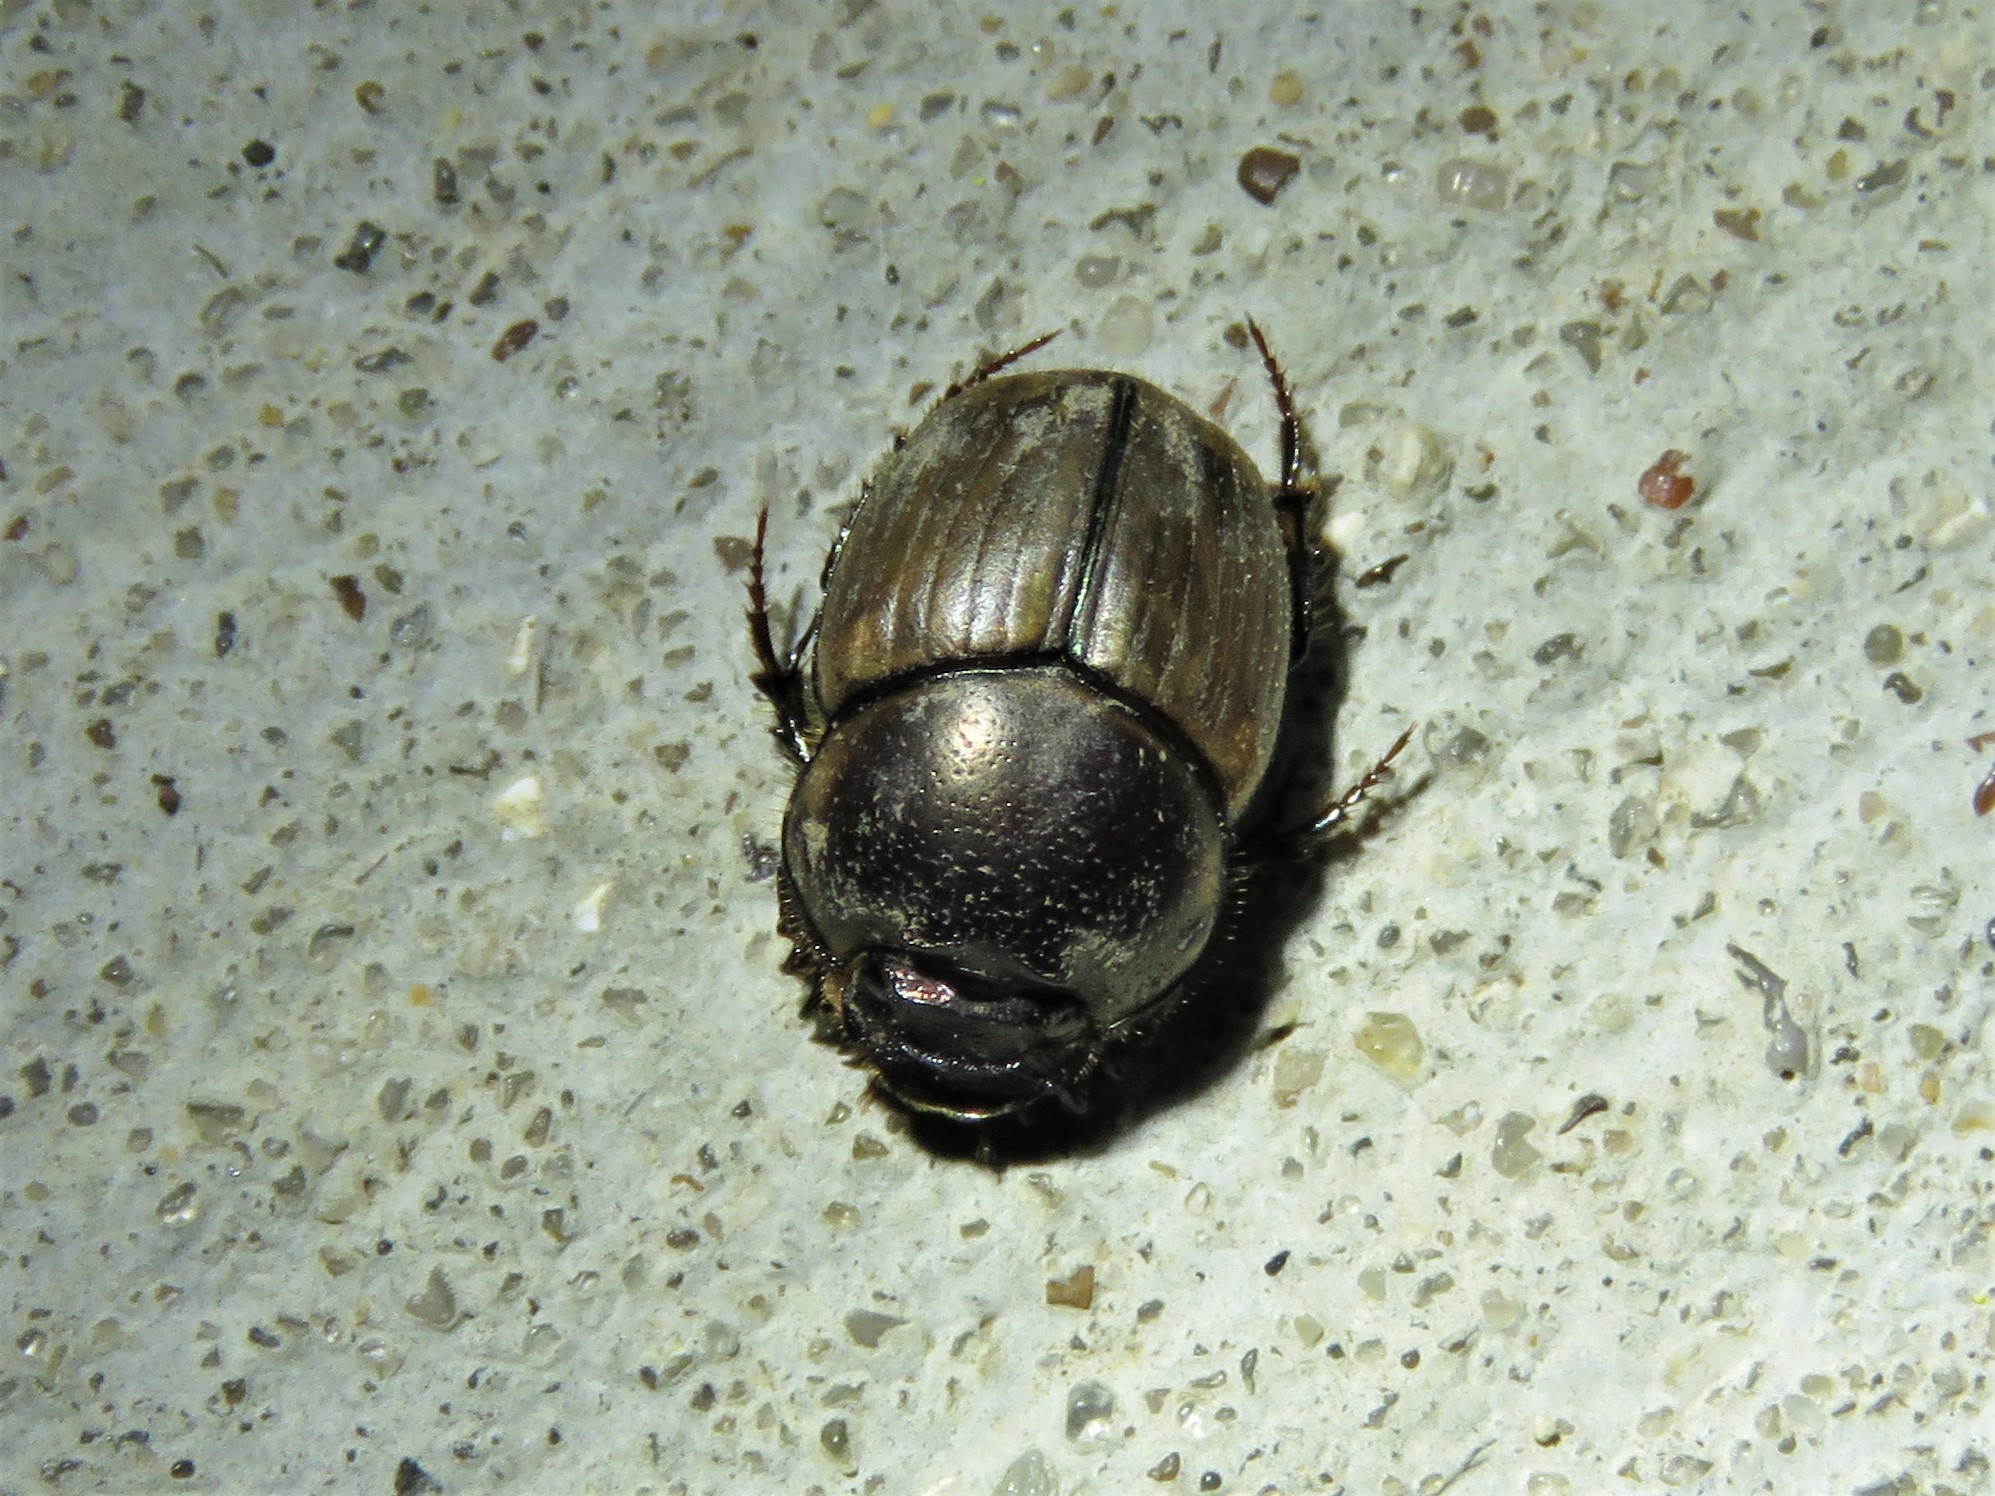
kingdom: Animalia
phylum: Arthropoda
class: Insecta
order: Coleoptera
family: Scarabaeidae
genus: Digitonthophagus
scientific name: Digitonthophagus gazella
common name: Brown dung beetle
